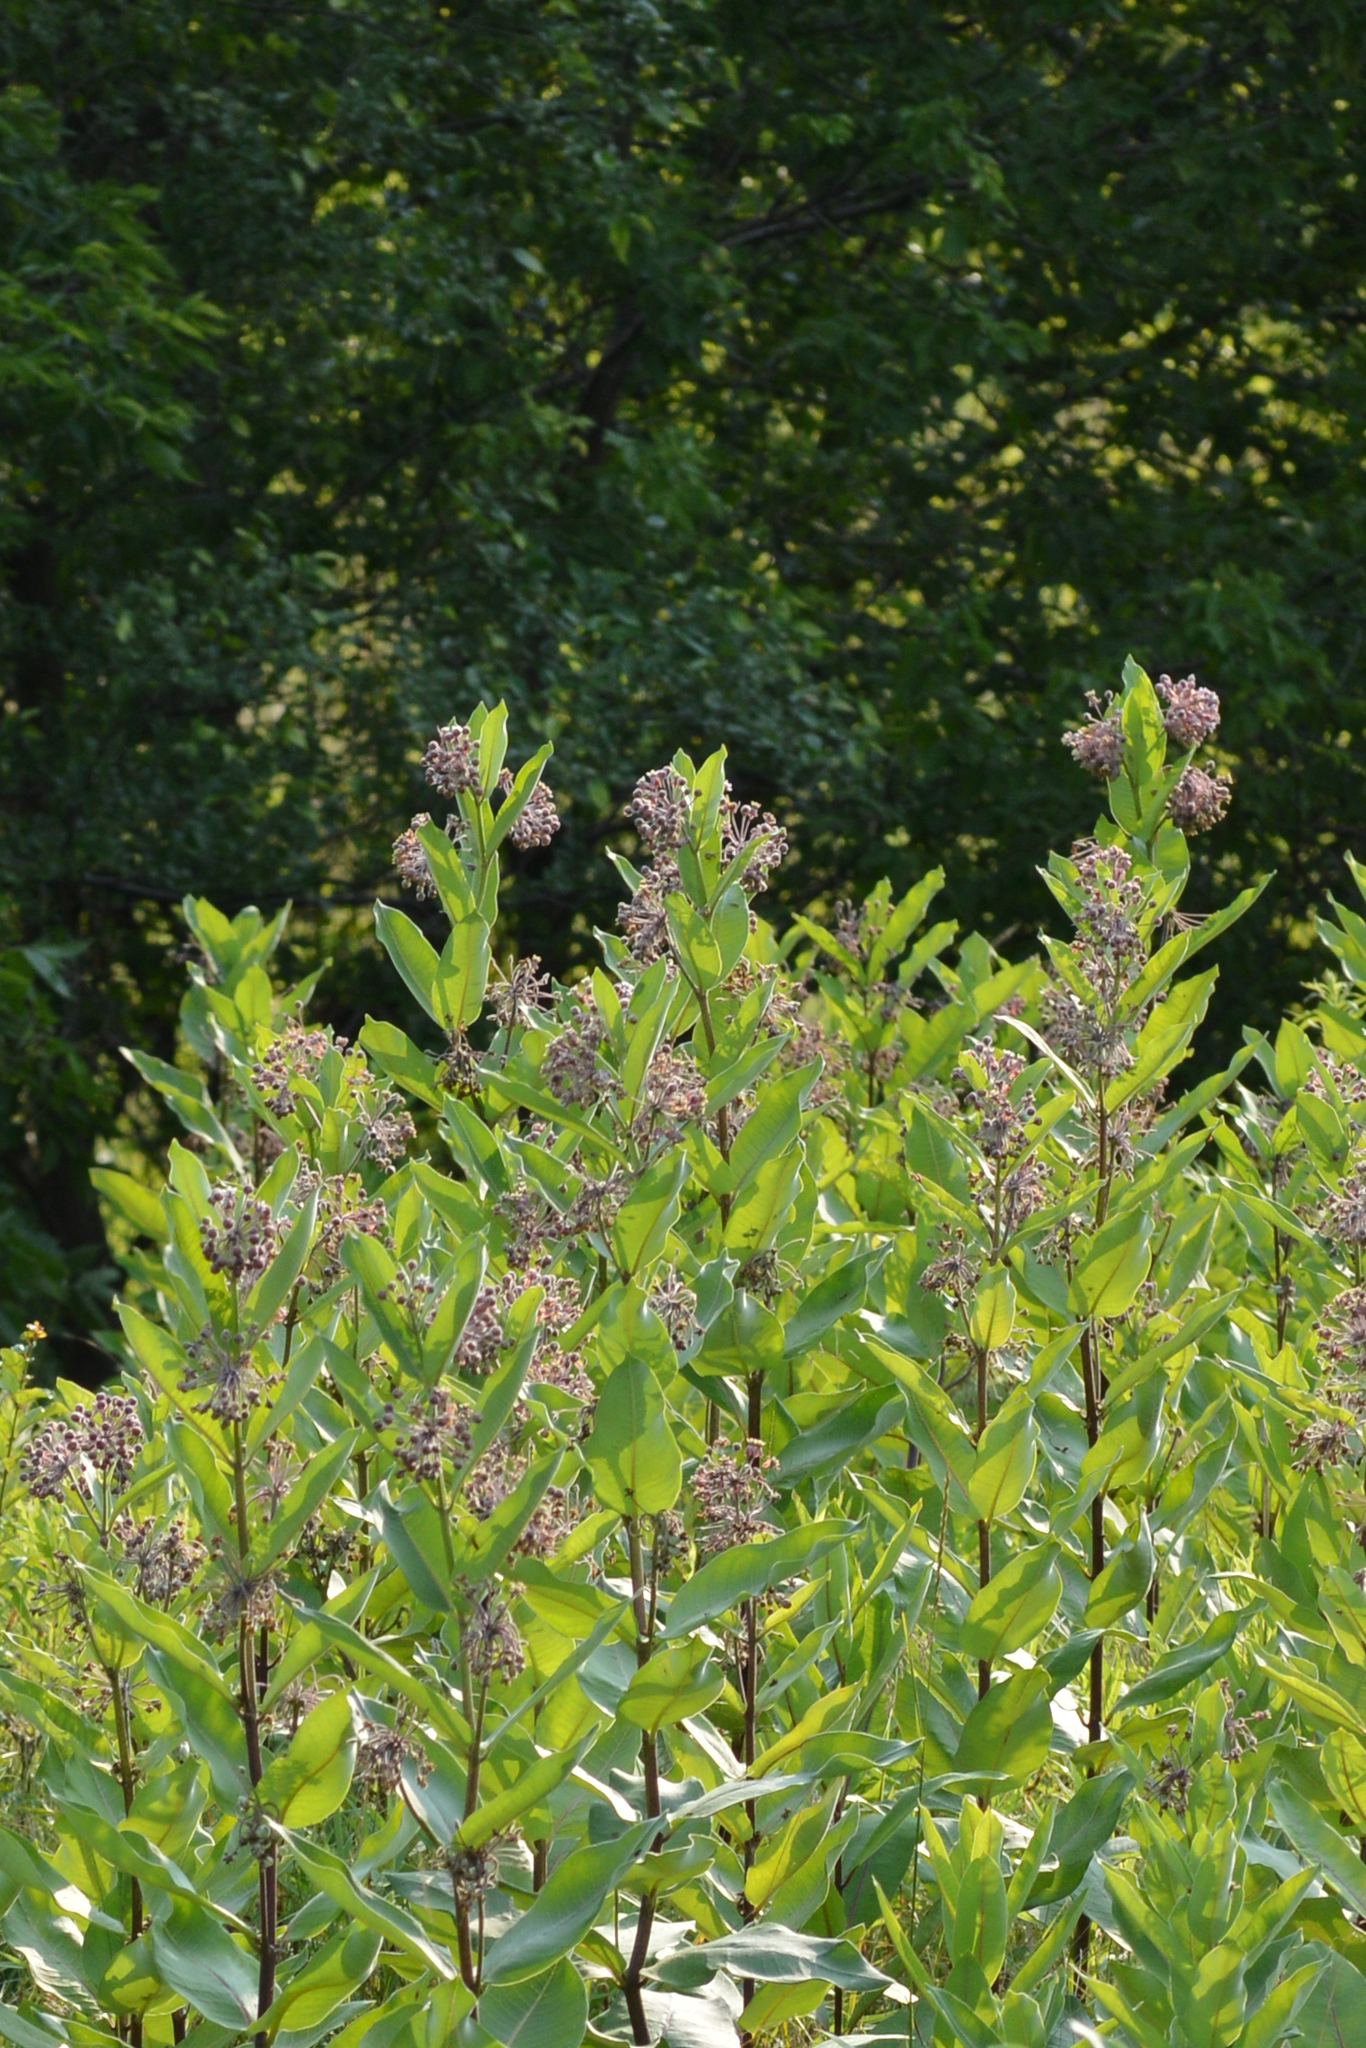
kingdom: Plantae
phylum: Tracheophyta
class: Magnoliopsida
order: Gentianales
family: Apocynaceae
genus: Asclepias
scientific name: Asclepias syriaca
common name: Common milkweed
